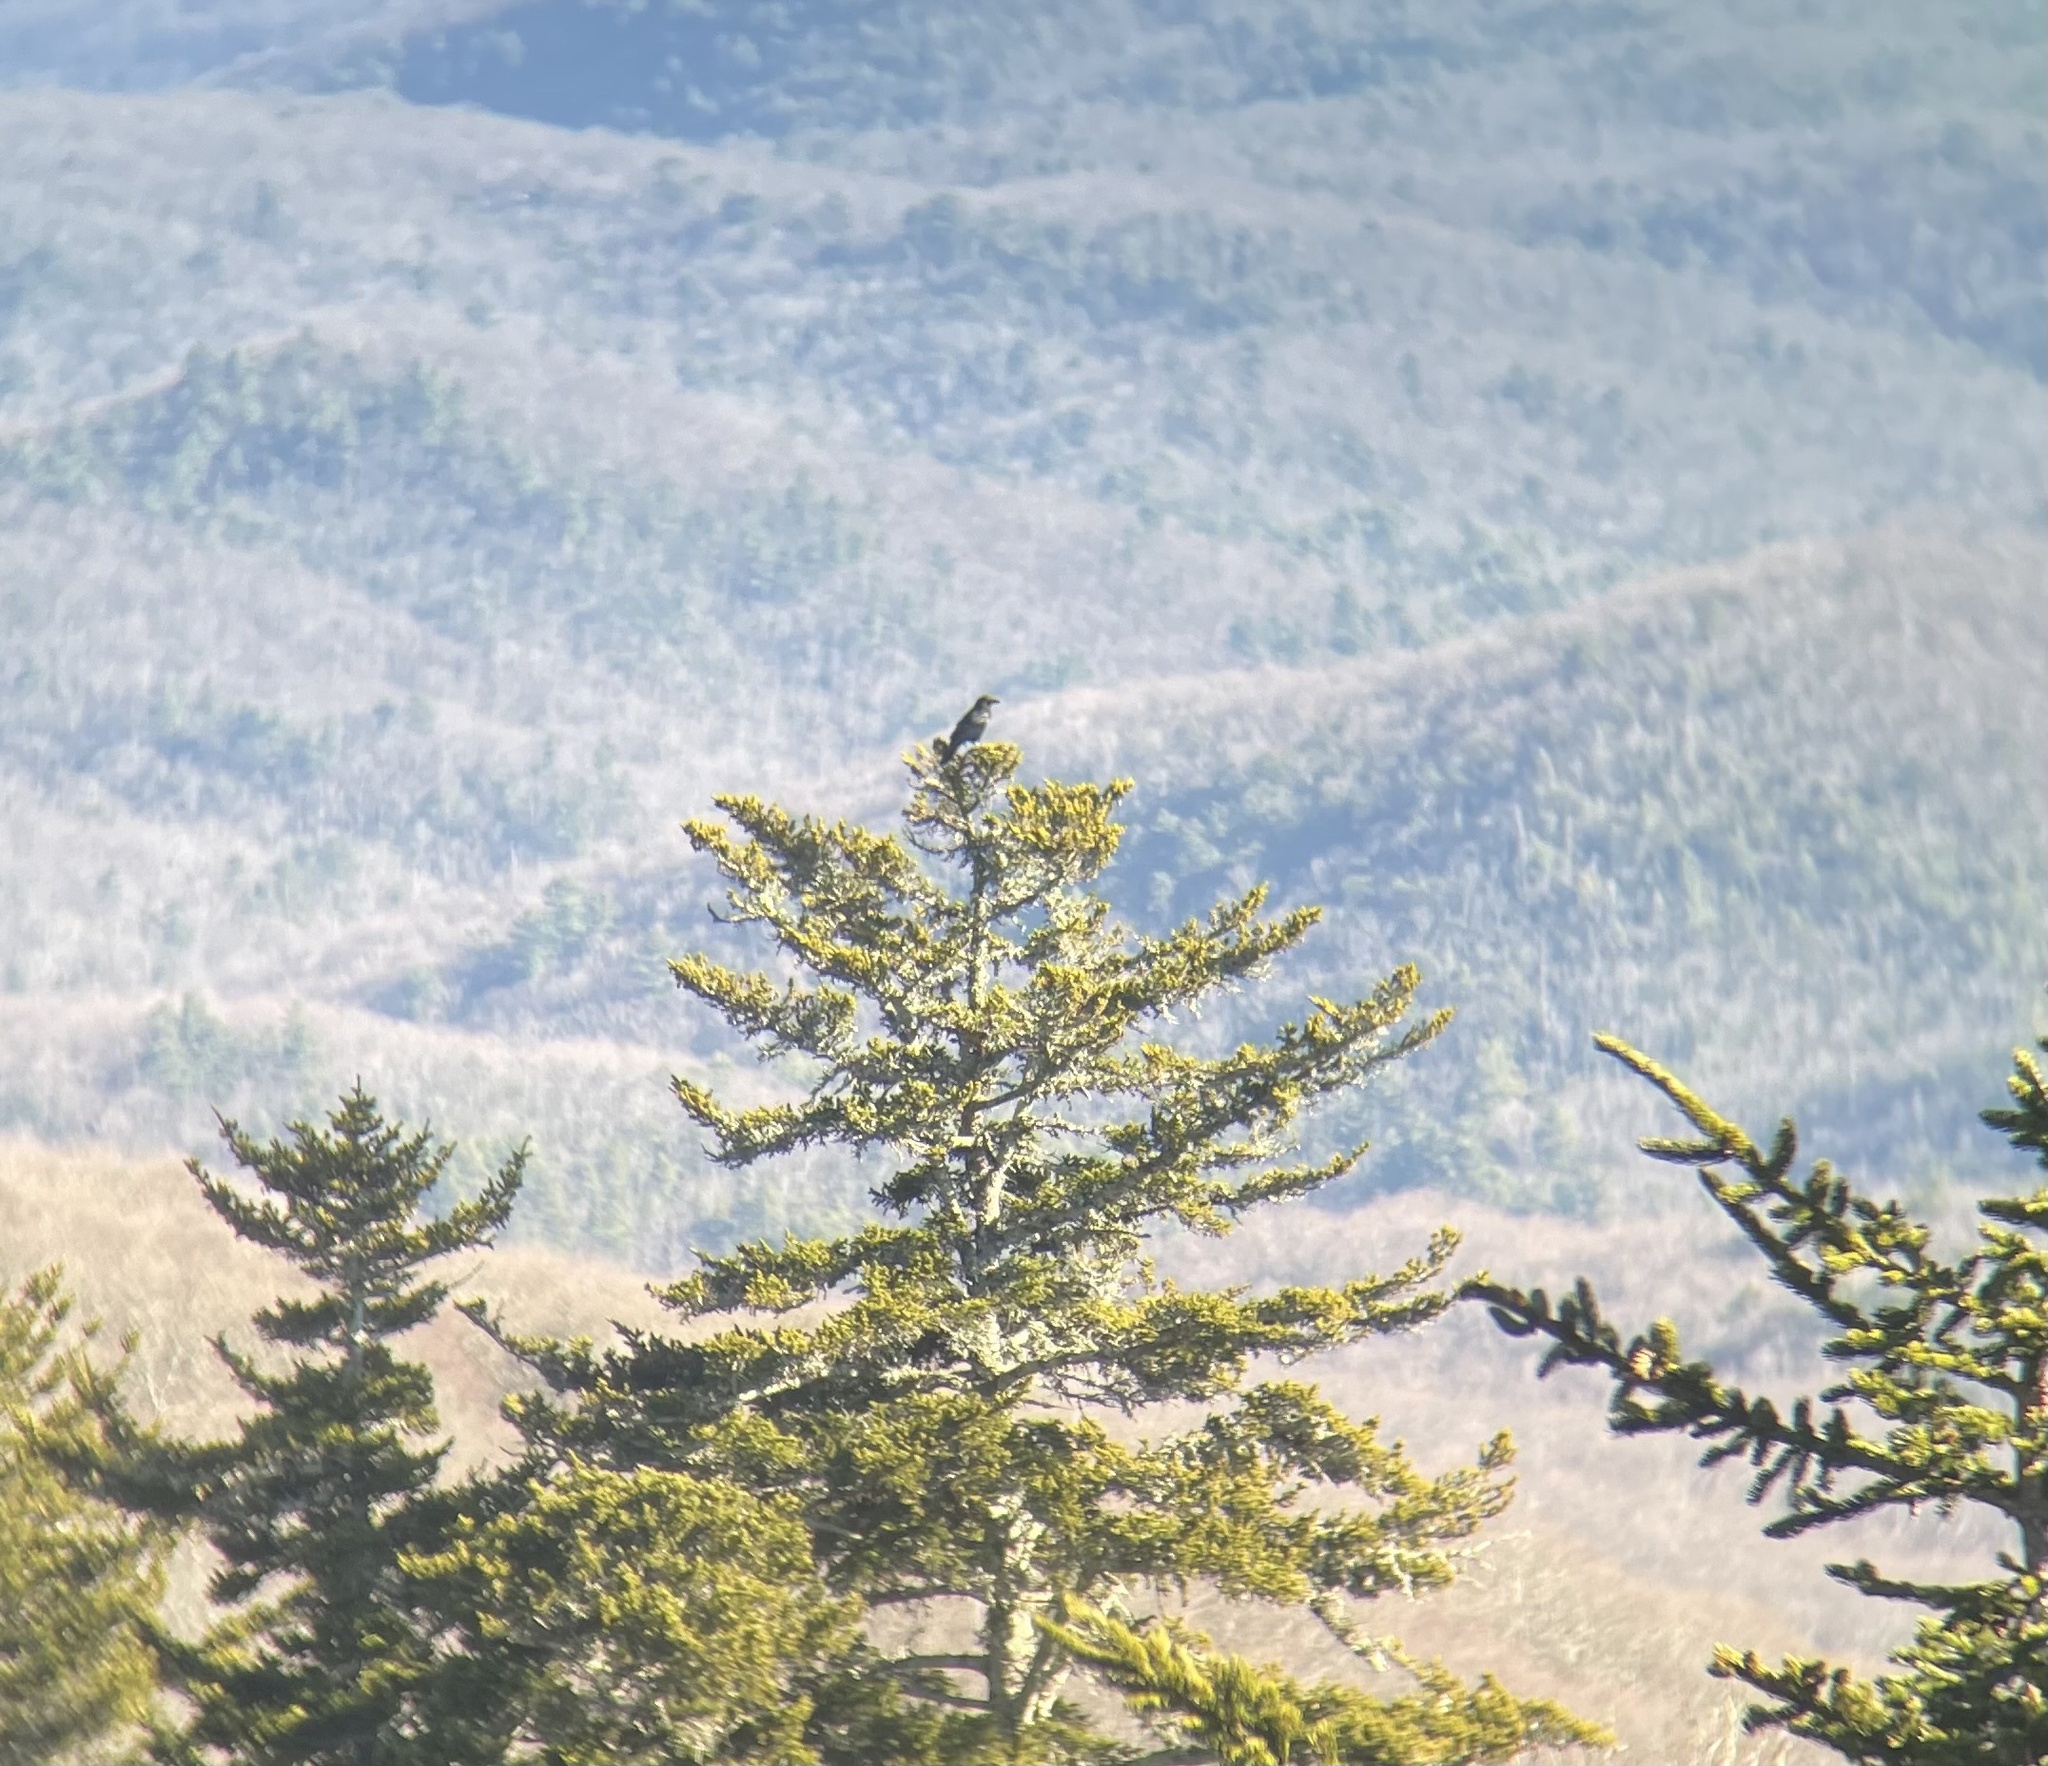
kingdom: Animalia
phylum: Chordata
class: Aves
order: Passeriformes
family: Corvidae
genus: Corvus
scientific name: Corvus brachyrhynchos
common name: American crow
